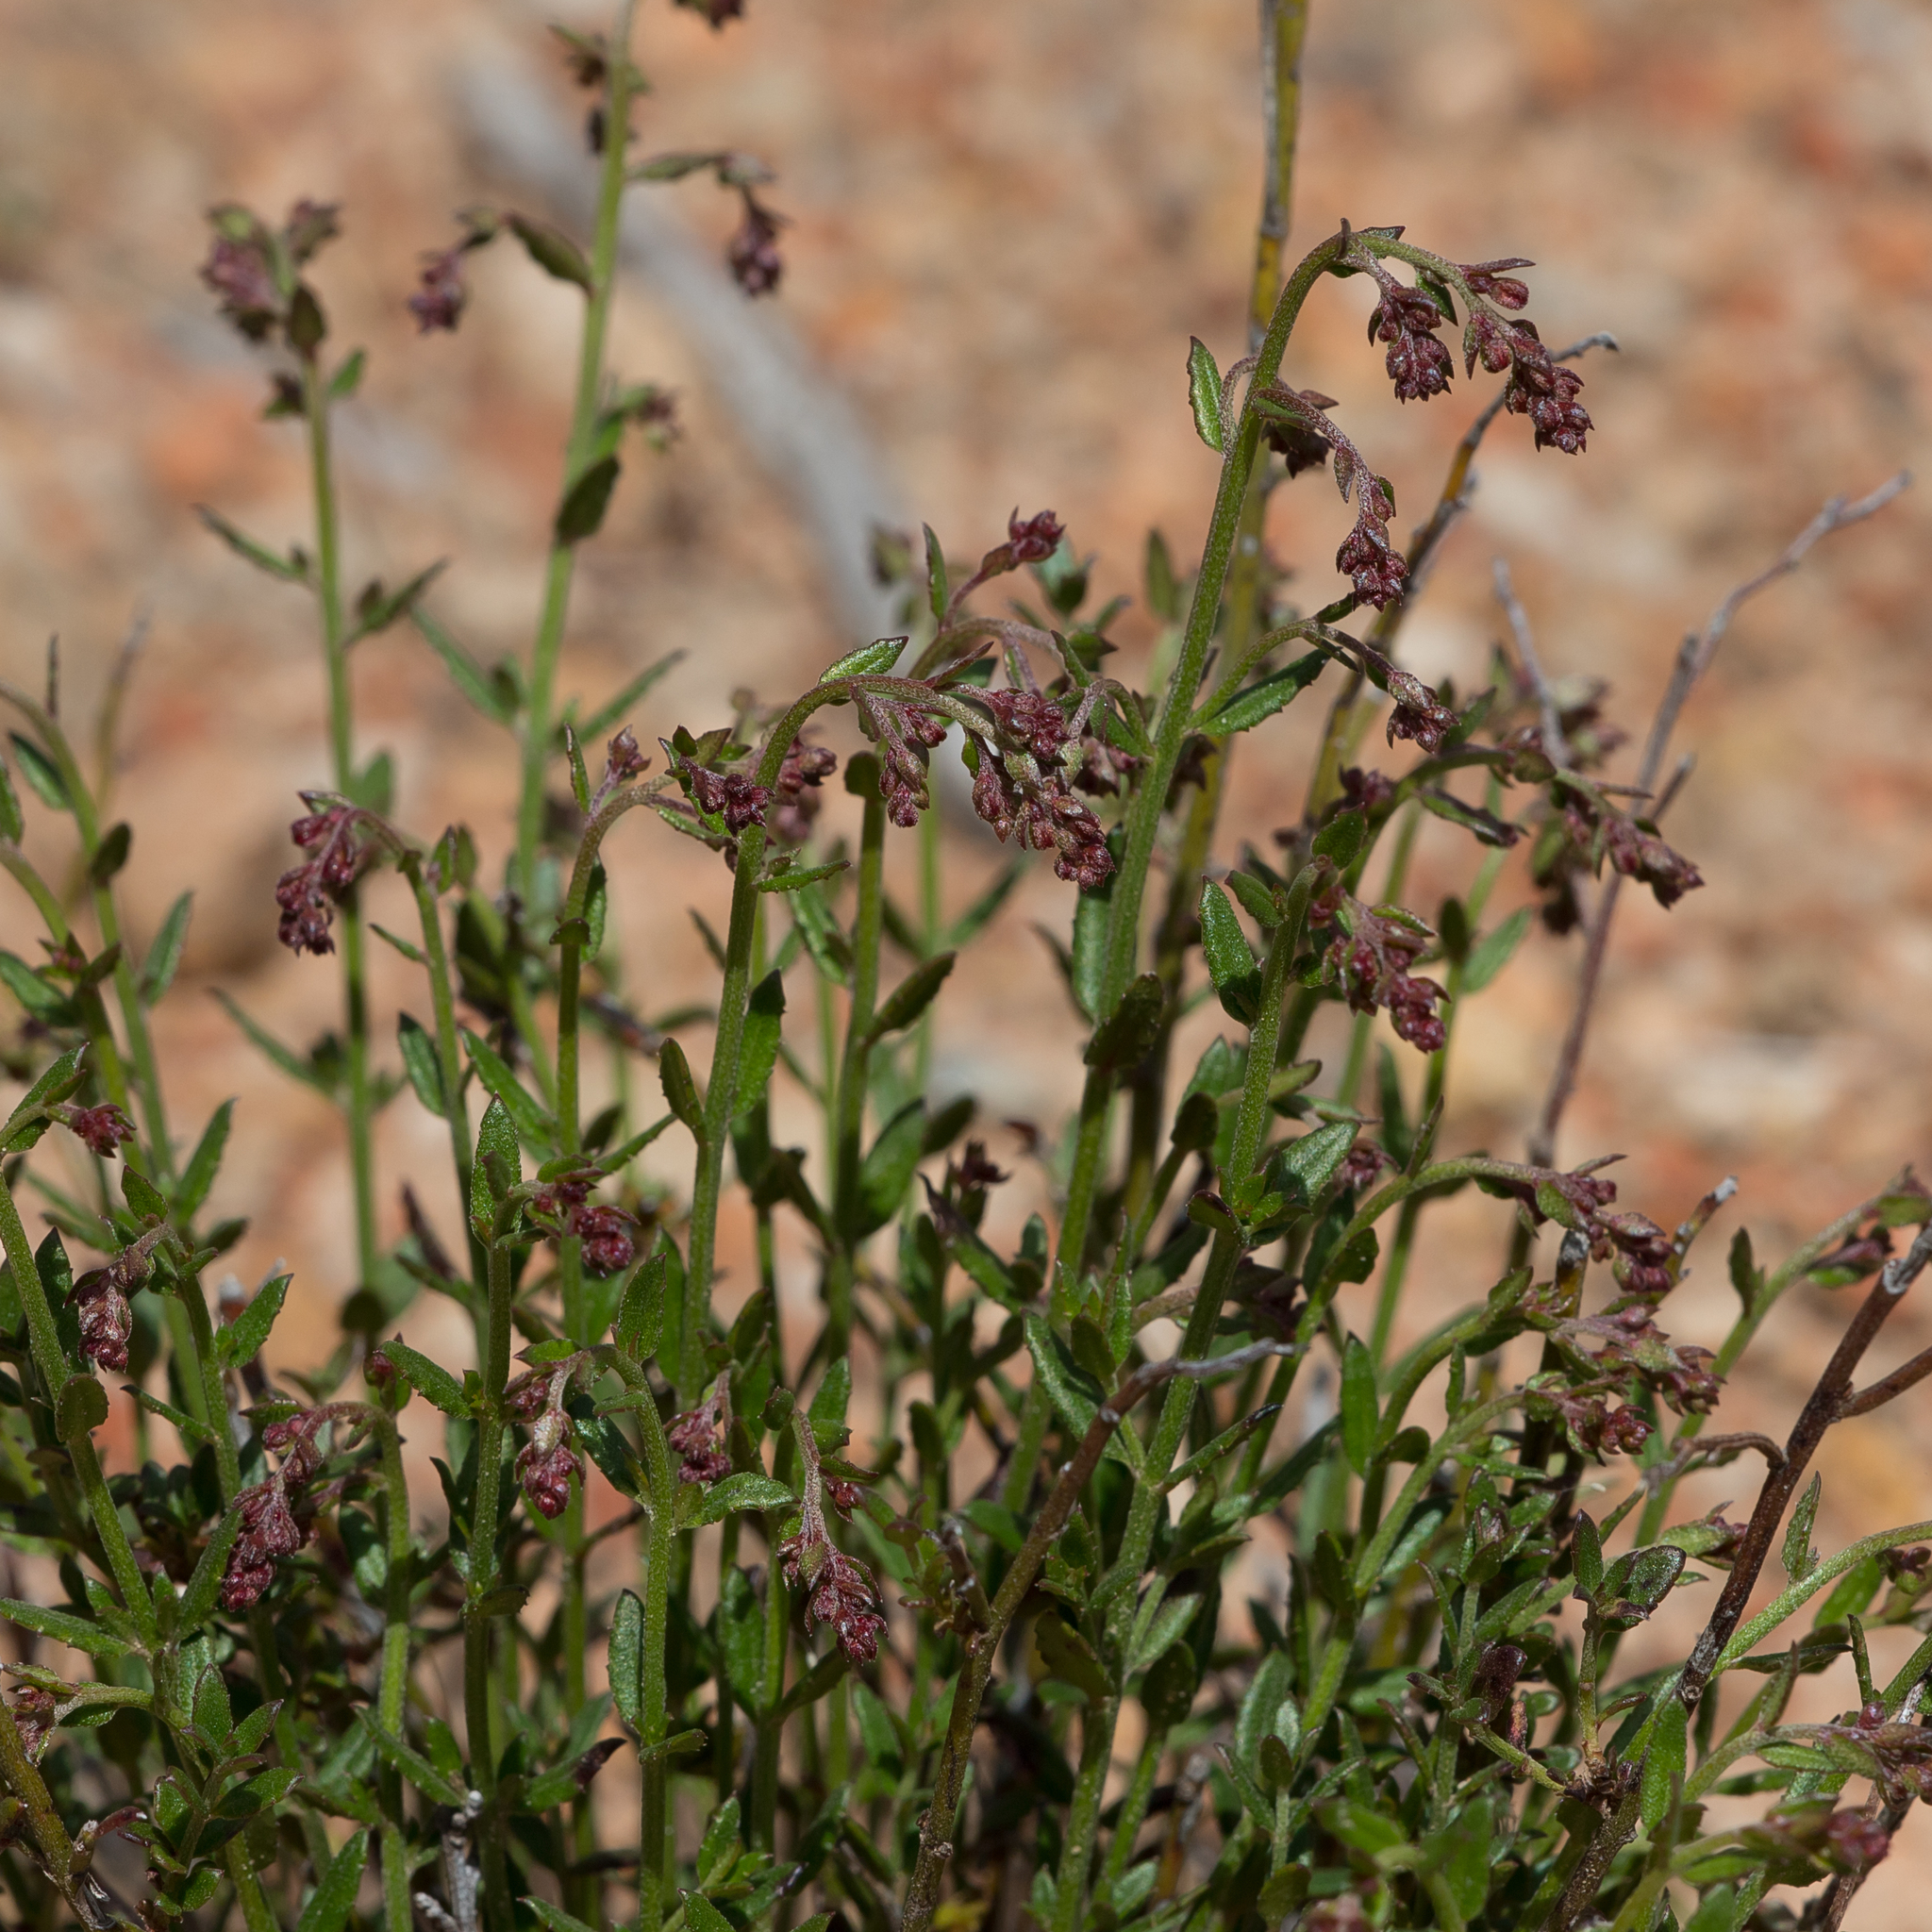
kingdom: Plantae
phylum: Tracheophyta
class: Magnoliopsida
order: Saxifragales
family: Haloragaceae
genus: Gonocarpus
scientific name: Gonocarpus tetragynus
